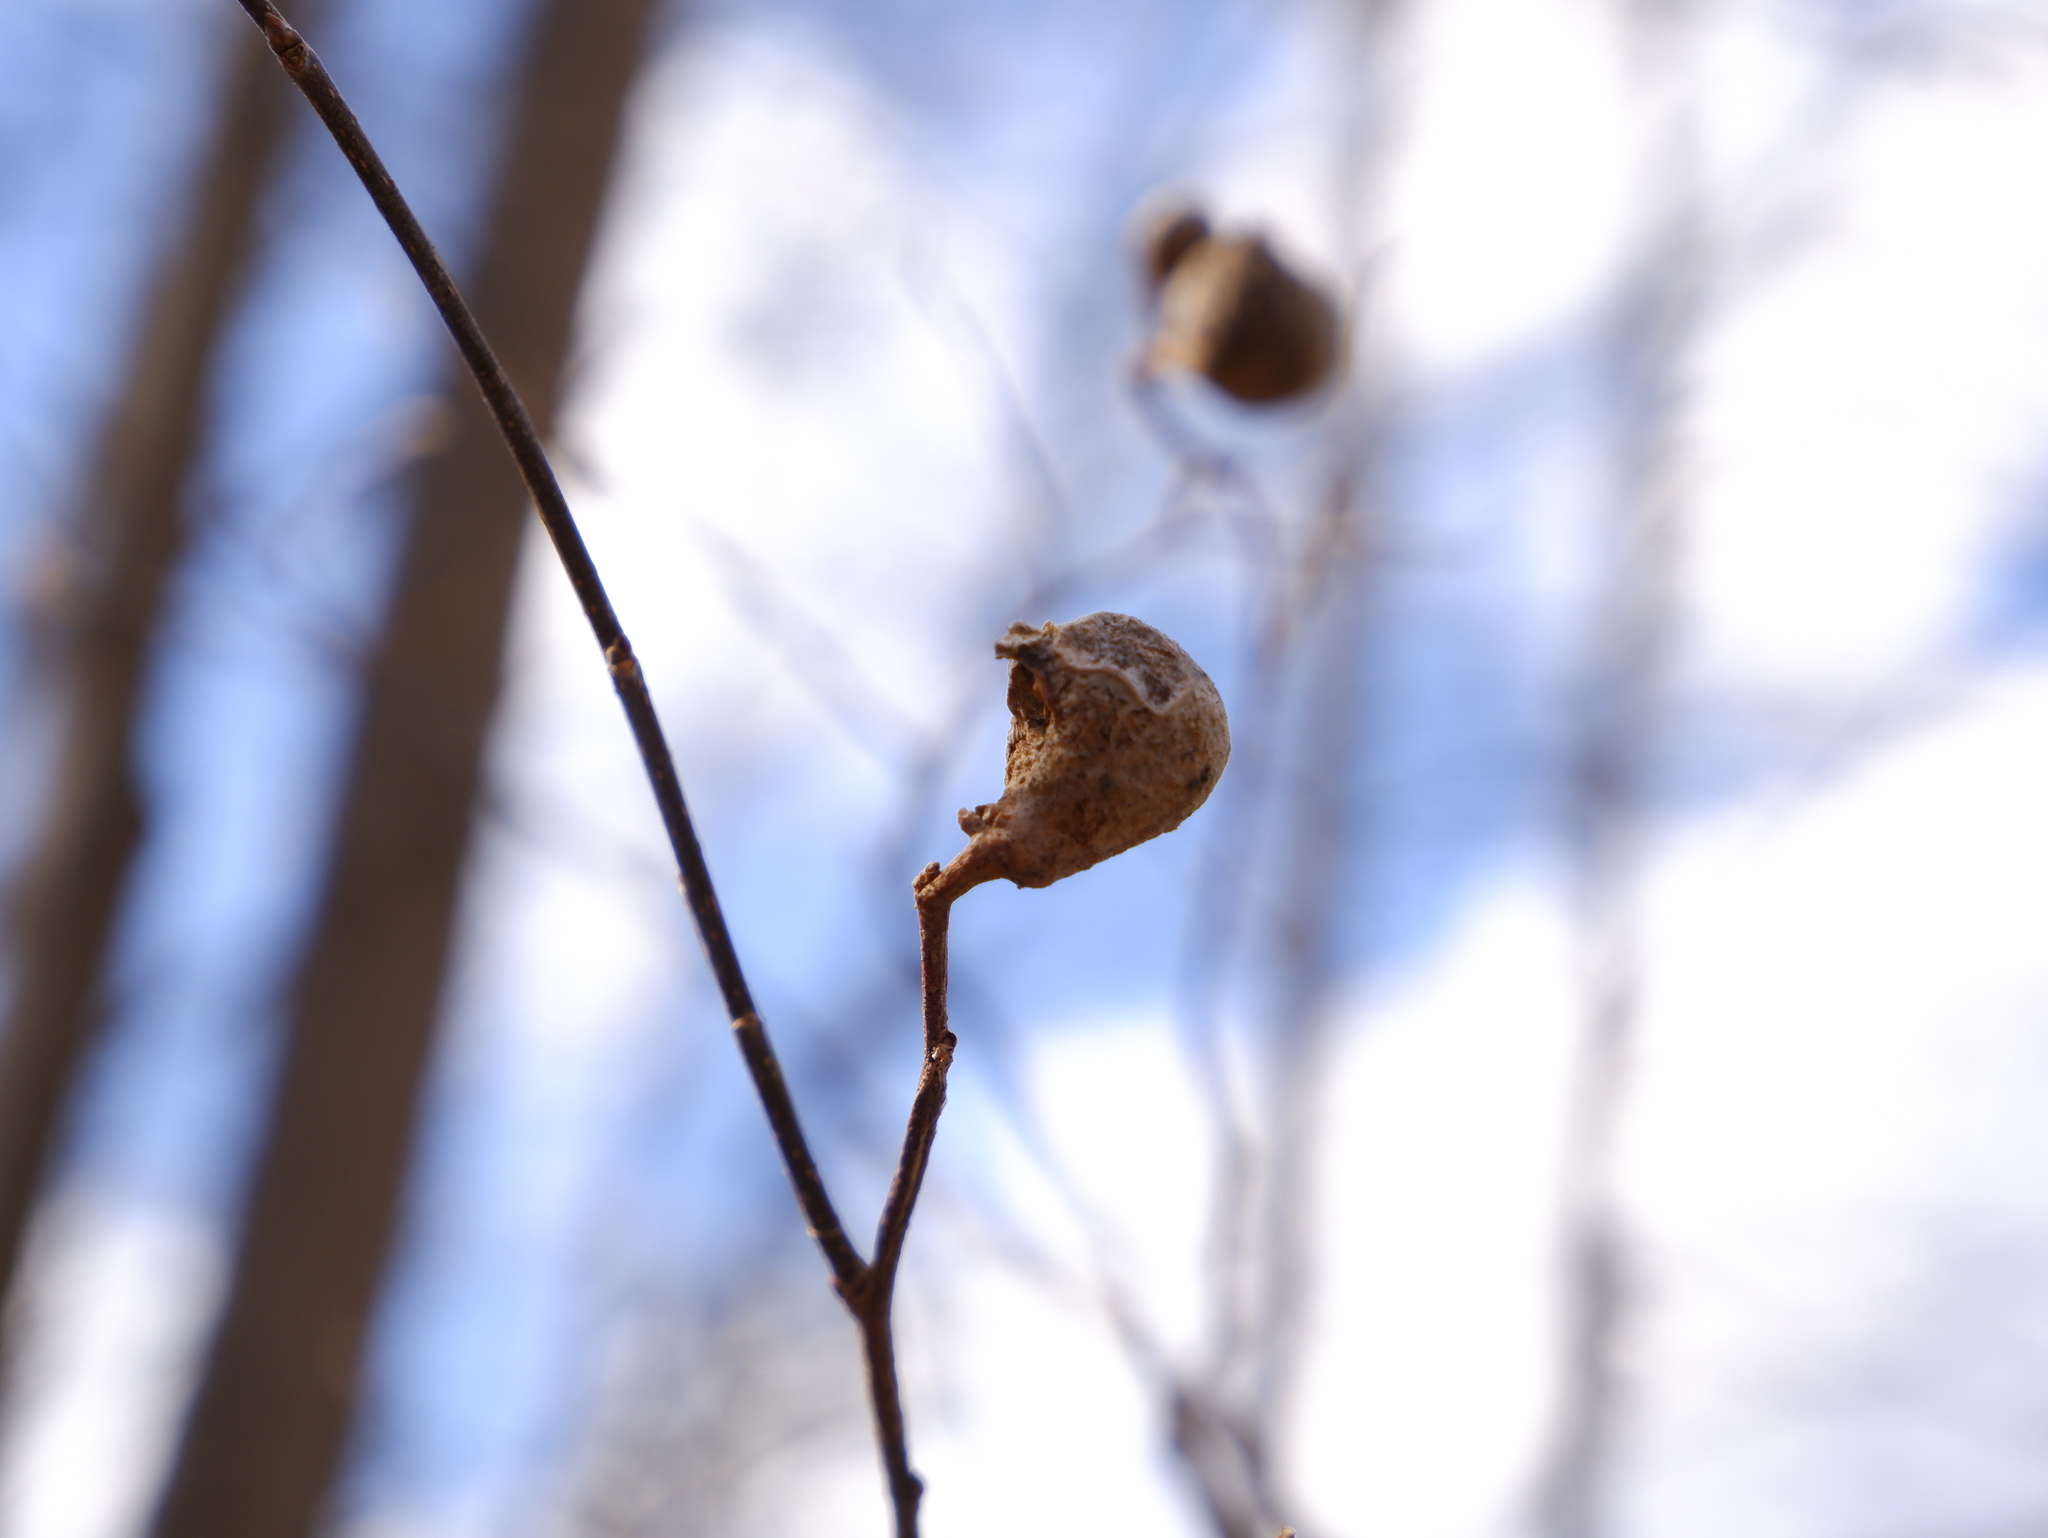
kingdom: Animalia
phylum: Arthropoda
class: Insecta
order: Hemiptera
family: Aphalaridae
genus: Pachypsylla
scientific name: Pachypsylla venusta
